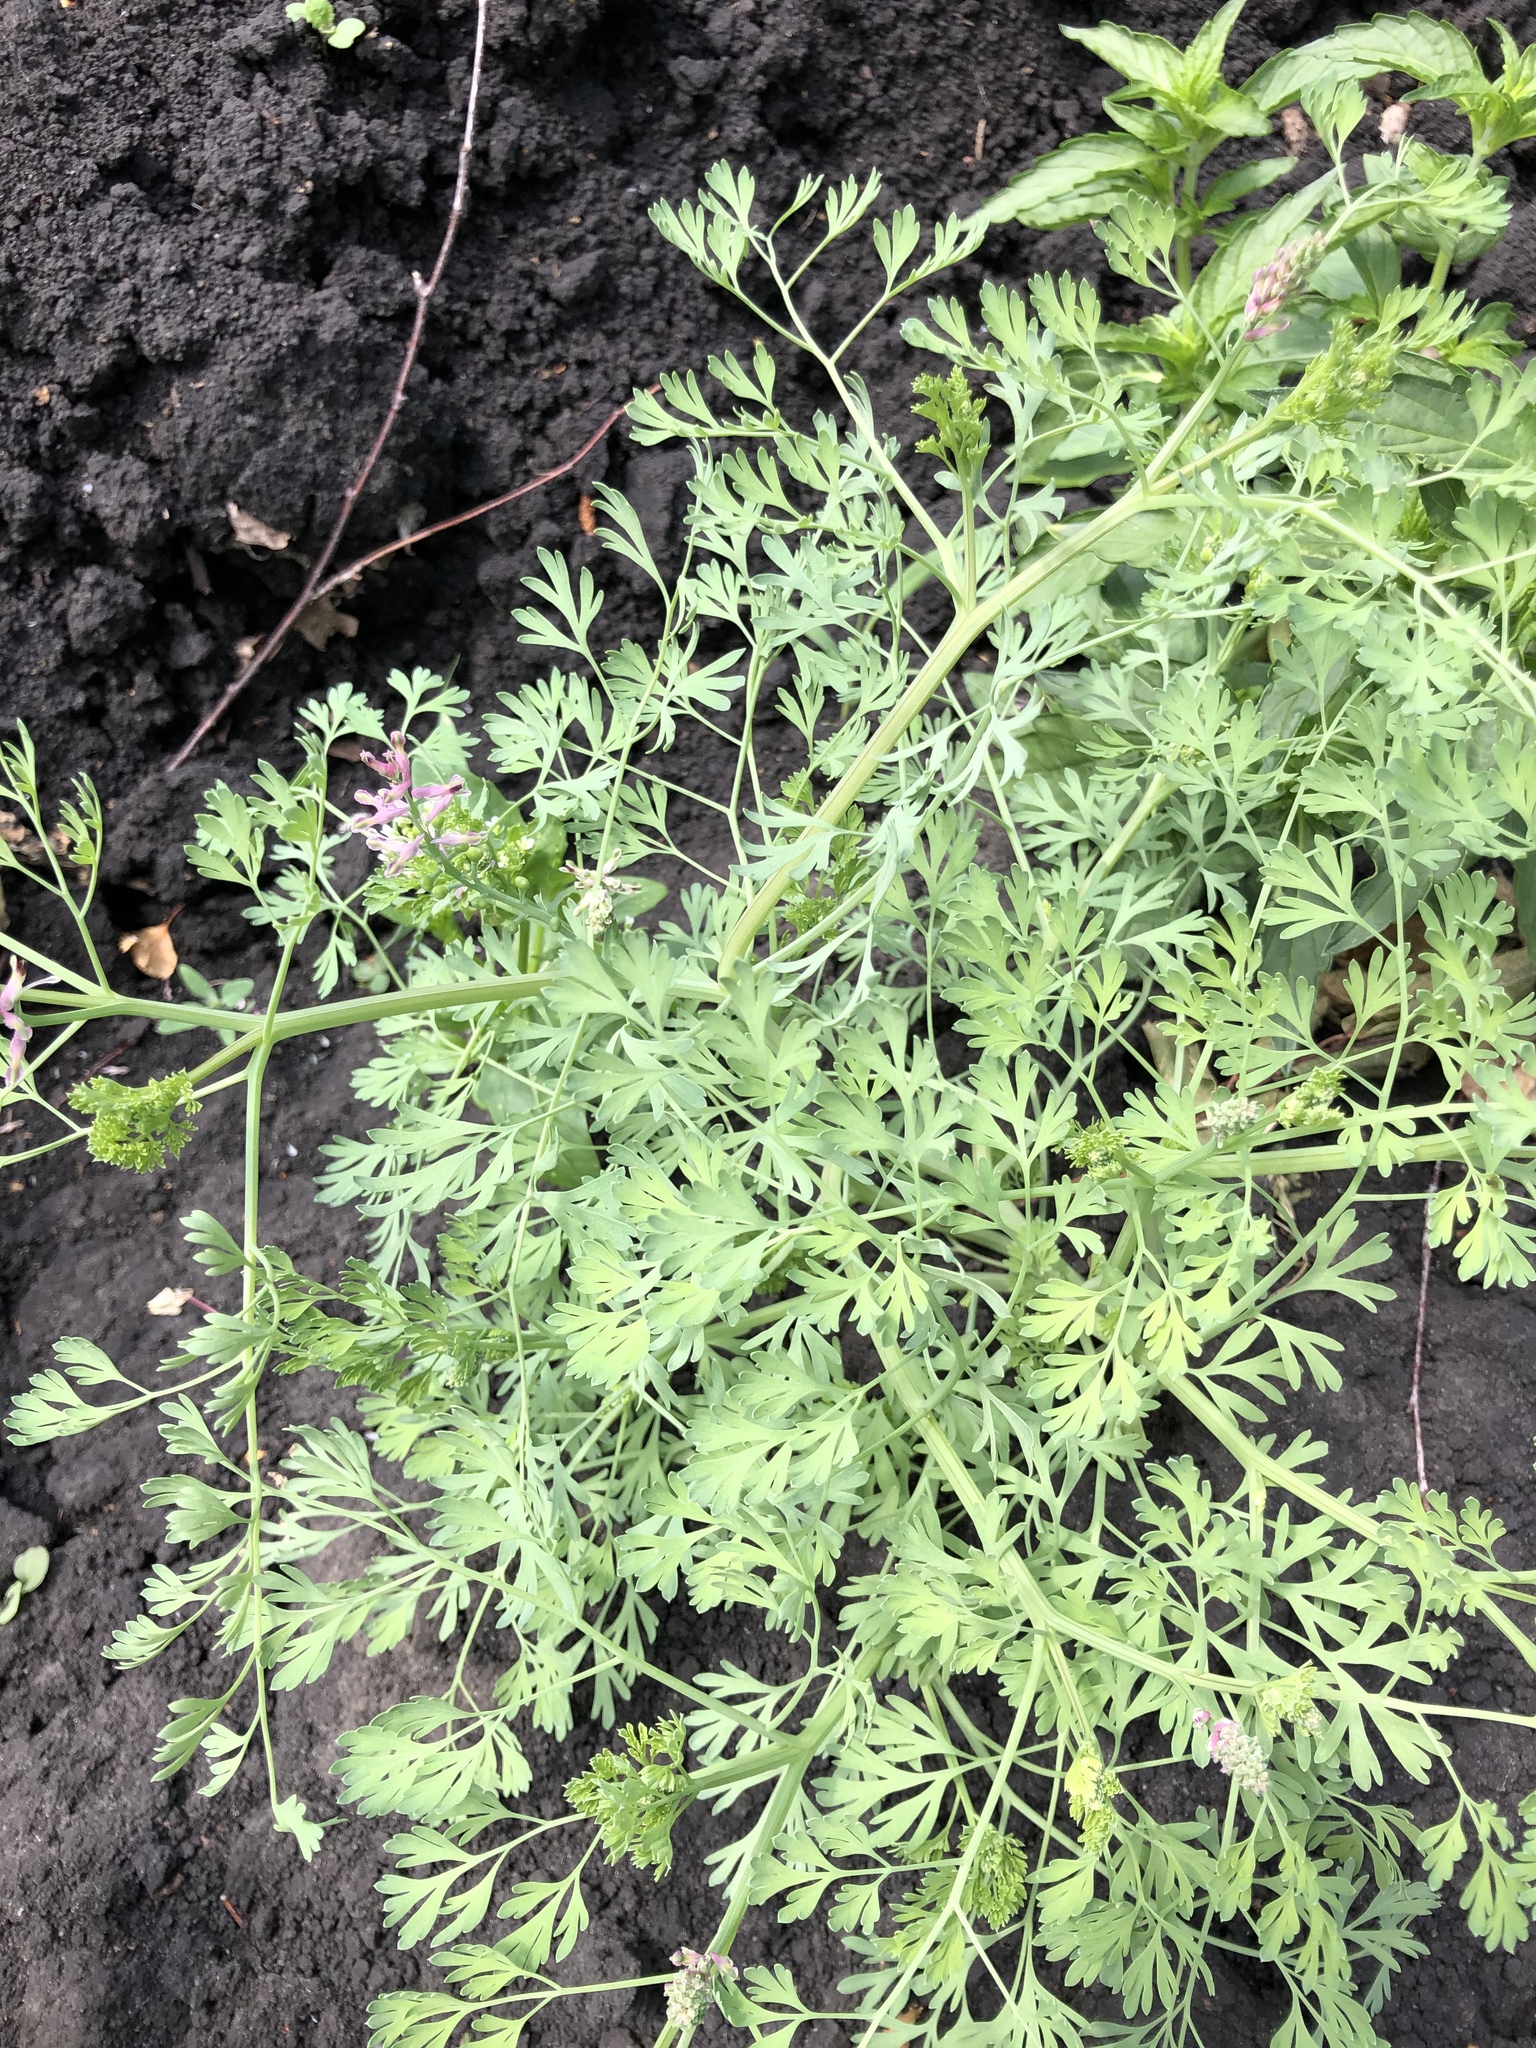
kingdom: Plantae
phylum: Tracheophyta
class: Magnoliopsida
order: Ranunculales
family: Papaveraceae
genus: Fumaria
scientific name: Fumaria officinalis
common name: Common fumitory
